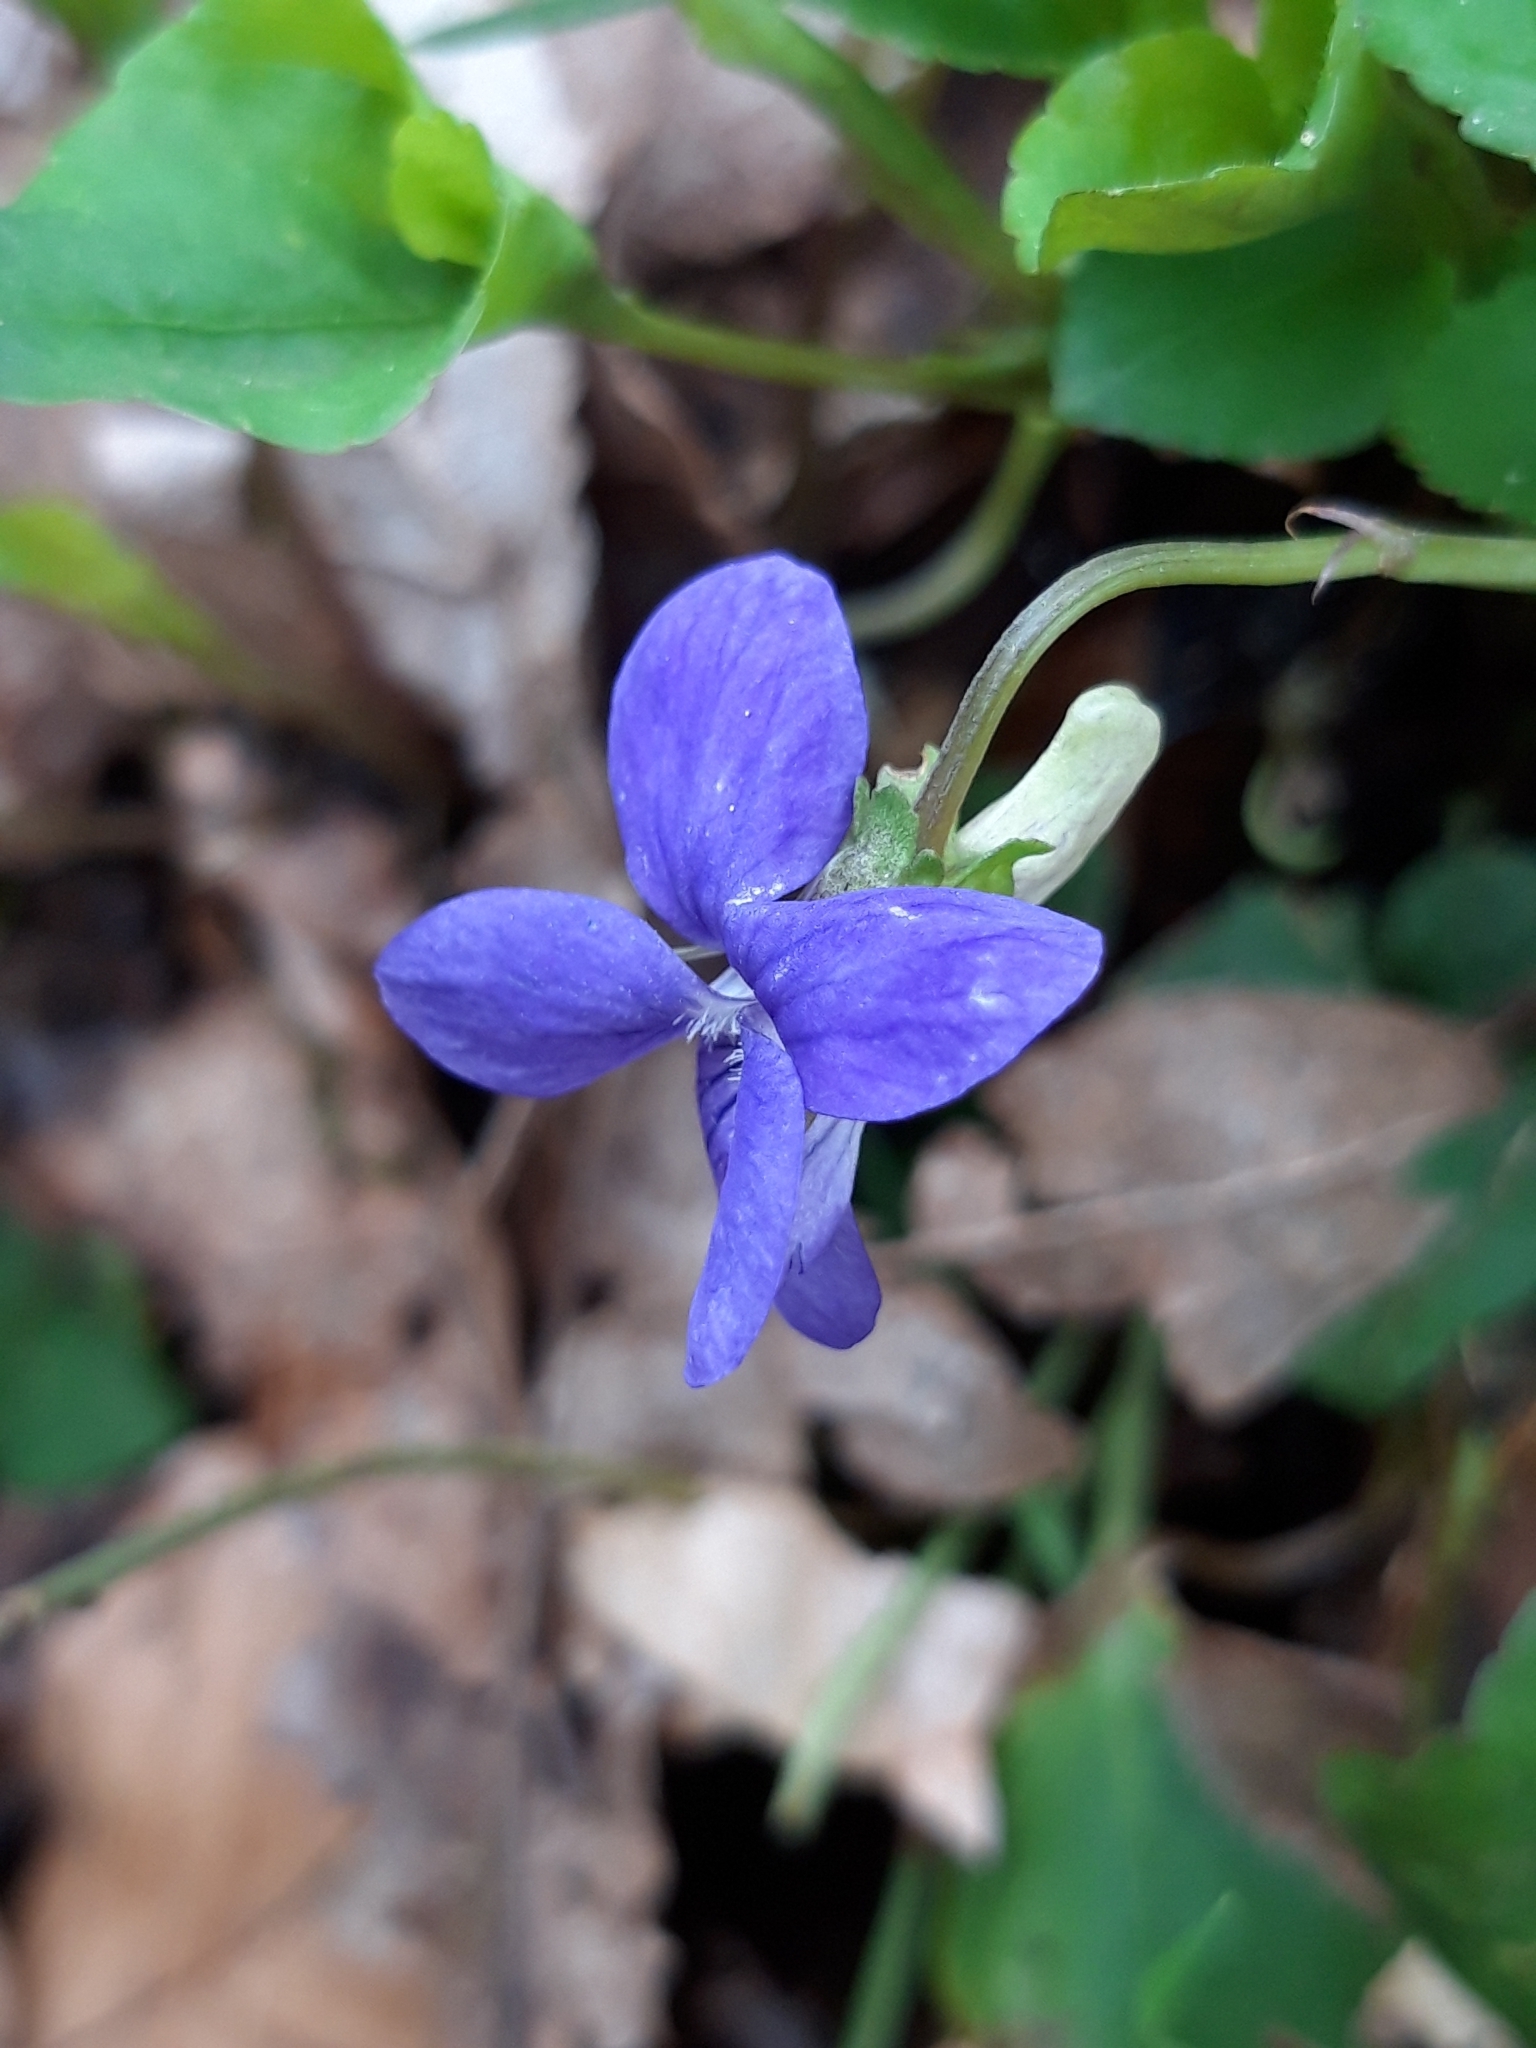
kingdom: Plantae
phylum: Tracheophyta
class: Magnoliopsida
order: Malpighiales
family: Violaceae
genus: Viola
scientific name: Viola riviniana
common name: Common dog-violet
